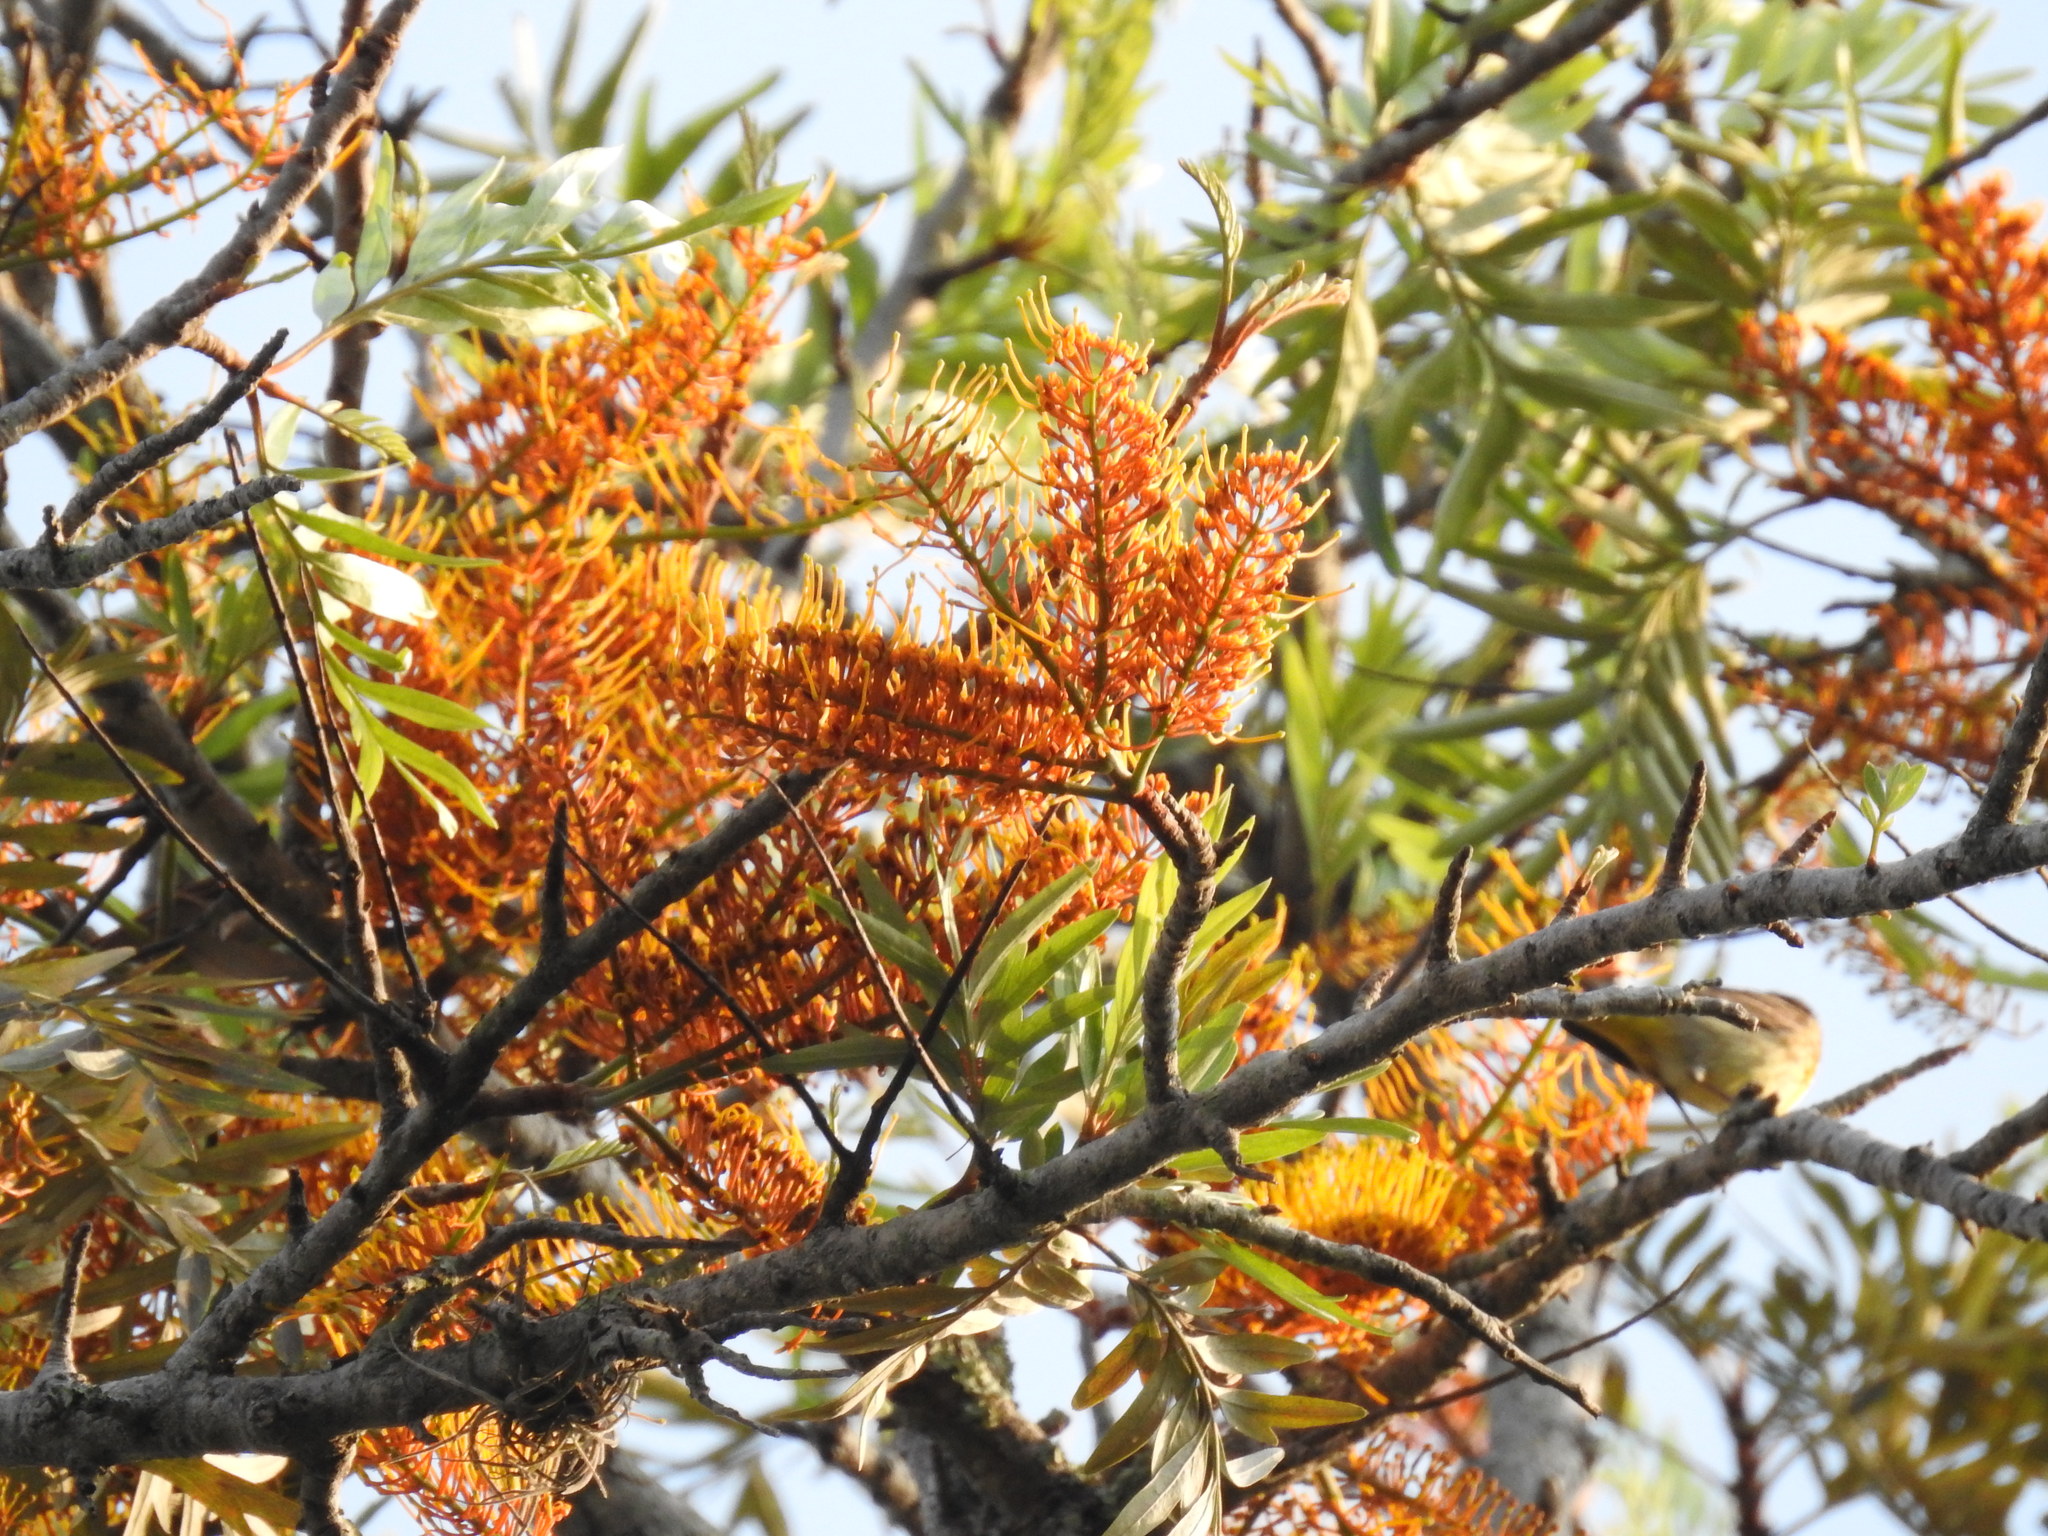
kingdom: Plantae
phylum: Tracheophyta
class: Magnoliopsida
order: Proteales
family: Proteaceae
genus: Grevillea
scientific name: Grevillea robusta
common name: Silkoak
